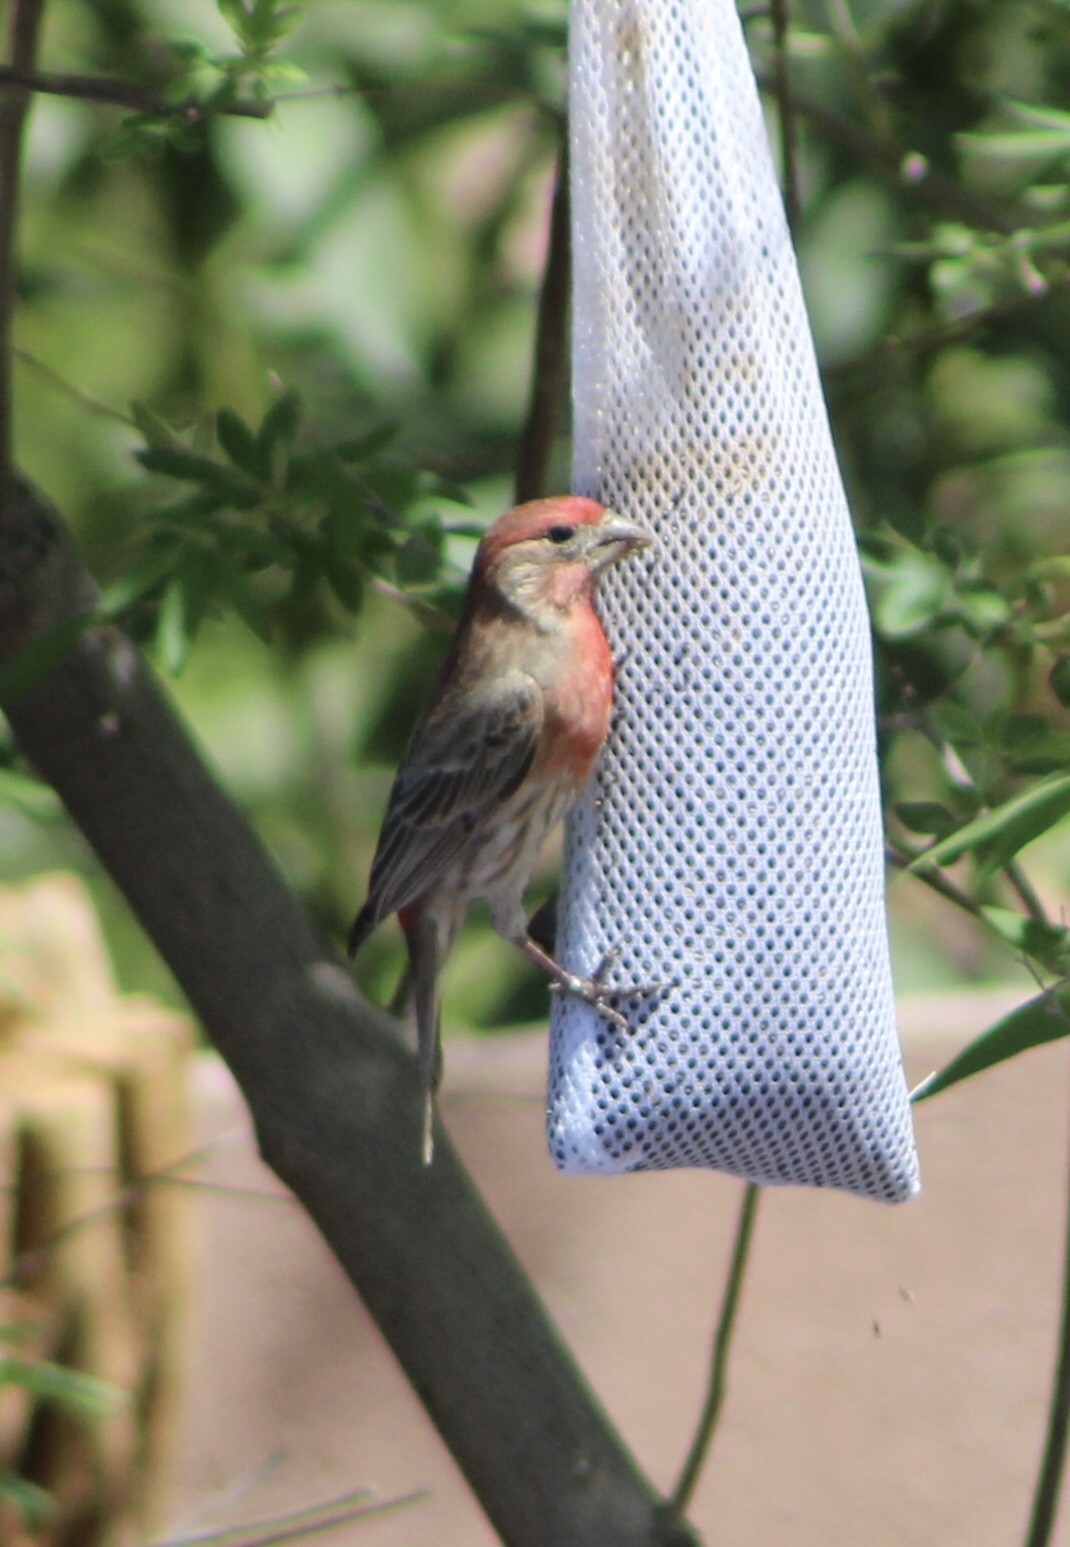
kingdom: Animalia
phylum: Chordata
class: Aves
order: Passeriformes
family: Fringillidae
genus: Haemorhous
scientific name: Haemorhous mexicanus
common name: House finch
